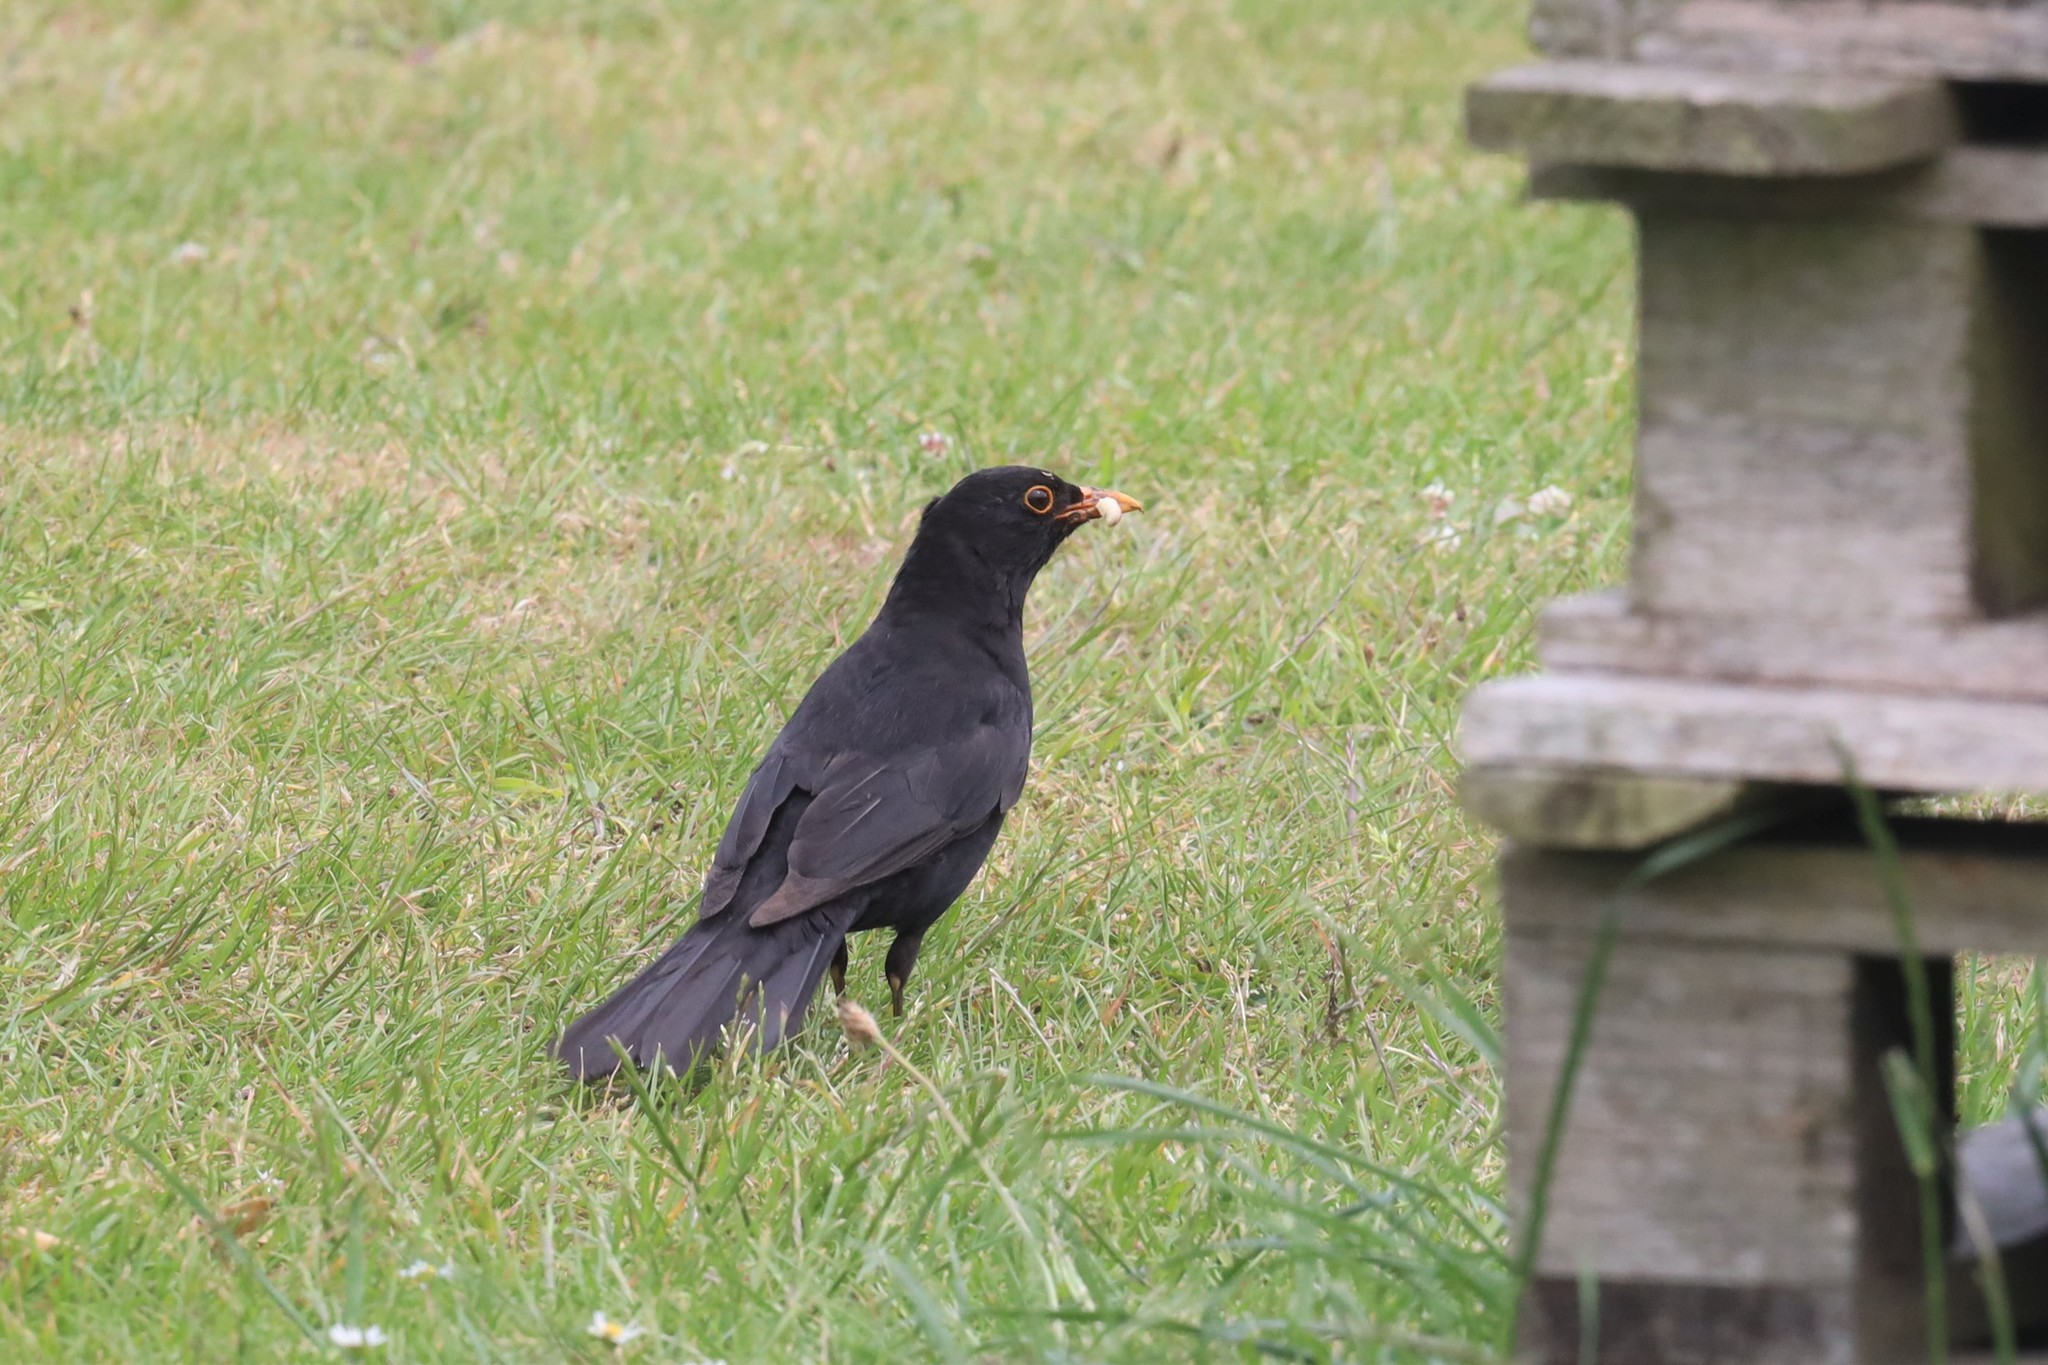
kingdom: Animalia
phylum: Chordata
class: Aves
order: Passeriformes
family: Turdidae
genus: Turdus
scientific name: Turdus merula
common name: Common blackbird
